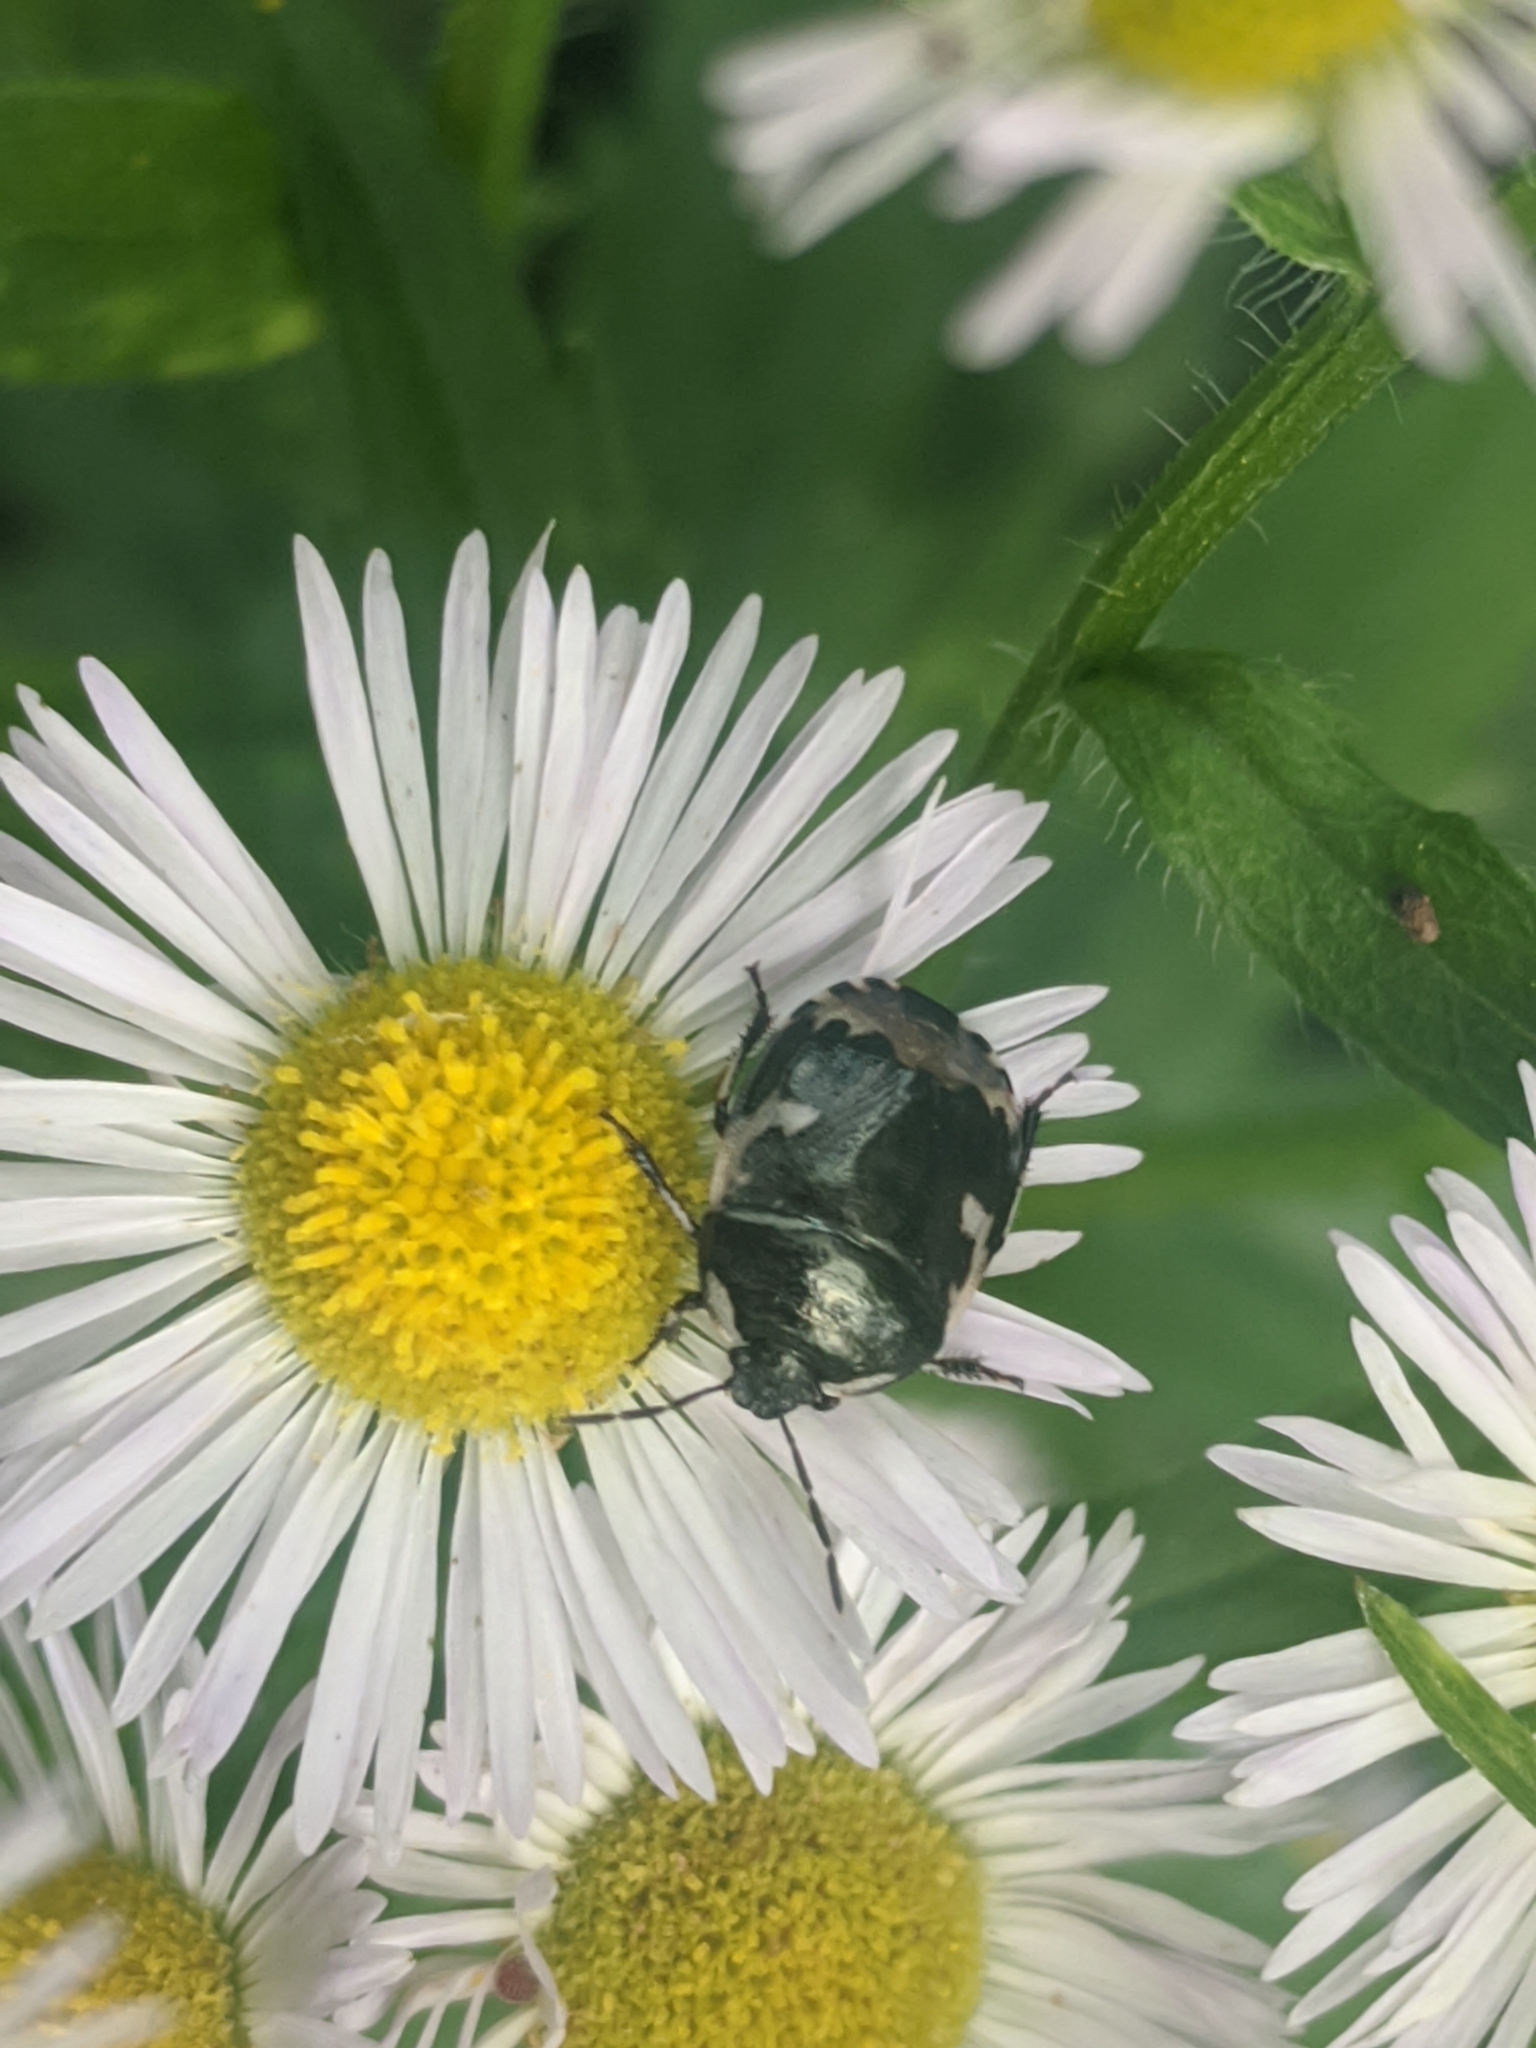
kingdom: Animalia
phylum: Arthropoda
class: Insecta
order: Hemiptera
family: Cydnidae
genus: Tritomegas
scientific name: Tritomegas bicolor
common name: Pied shieldbug
